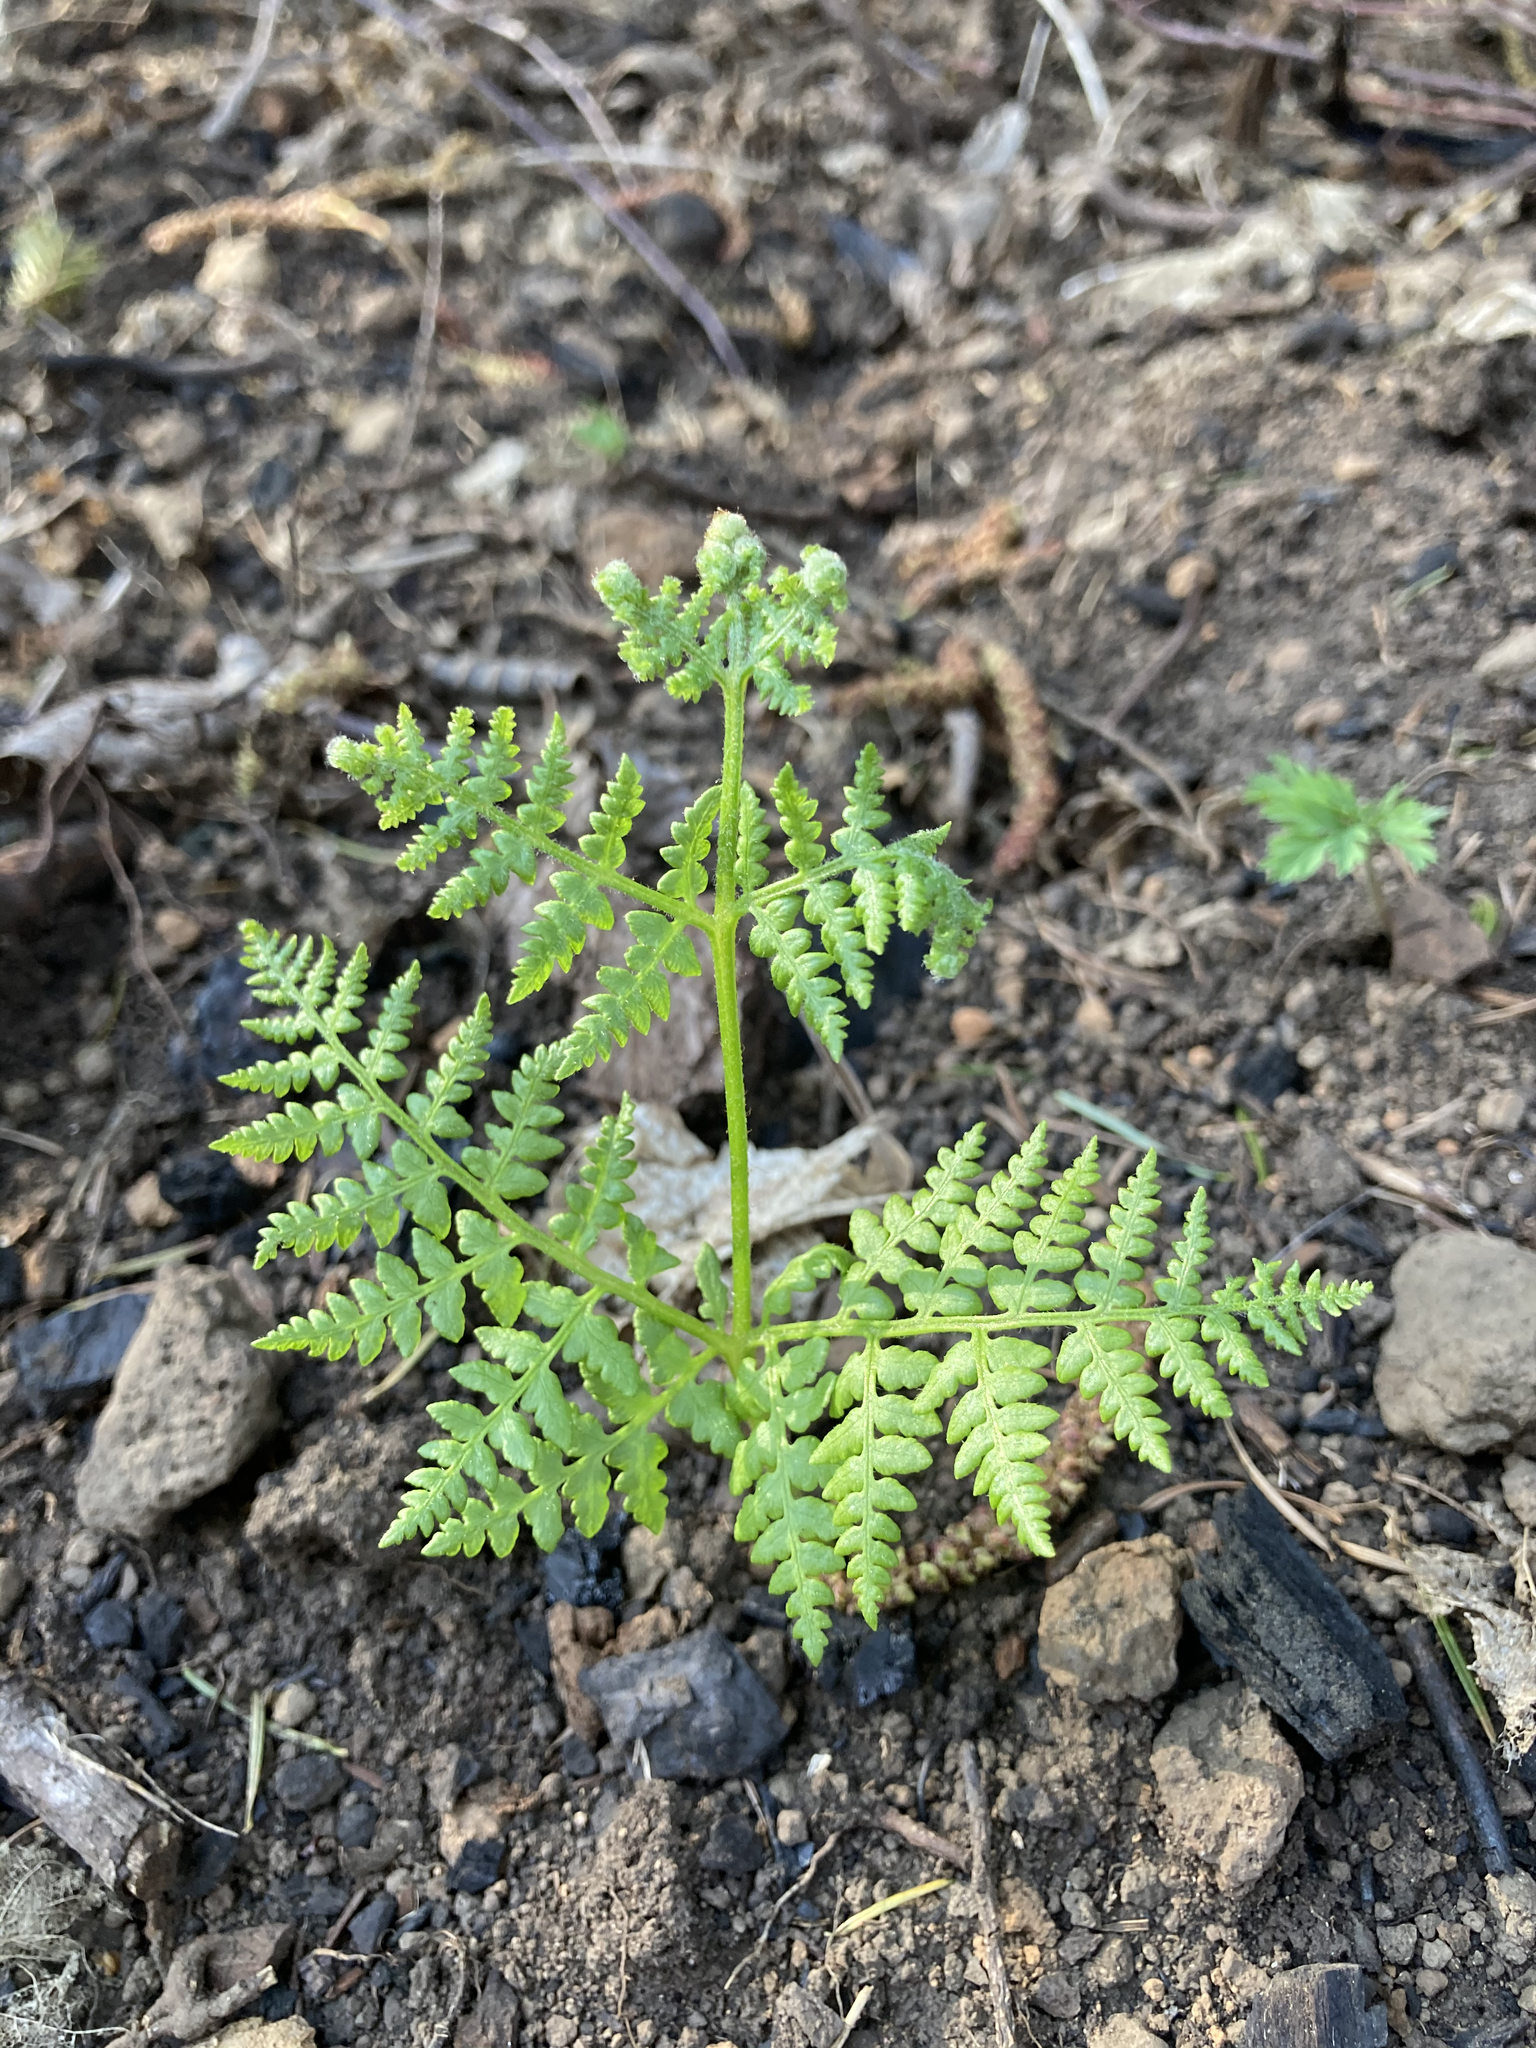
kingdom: Plantae
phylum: Tracheophyta
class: Polypodiopsida
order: Polypodiales
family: Dennstaedtiaceae
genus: Pteridium
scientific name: Pteridium aquilinum
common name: Bracken
